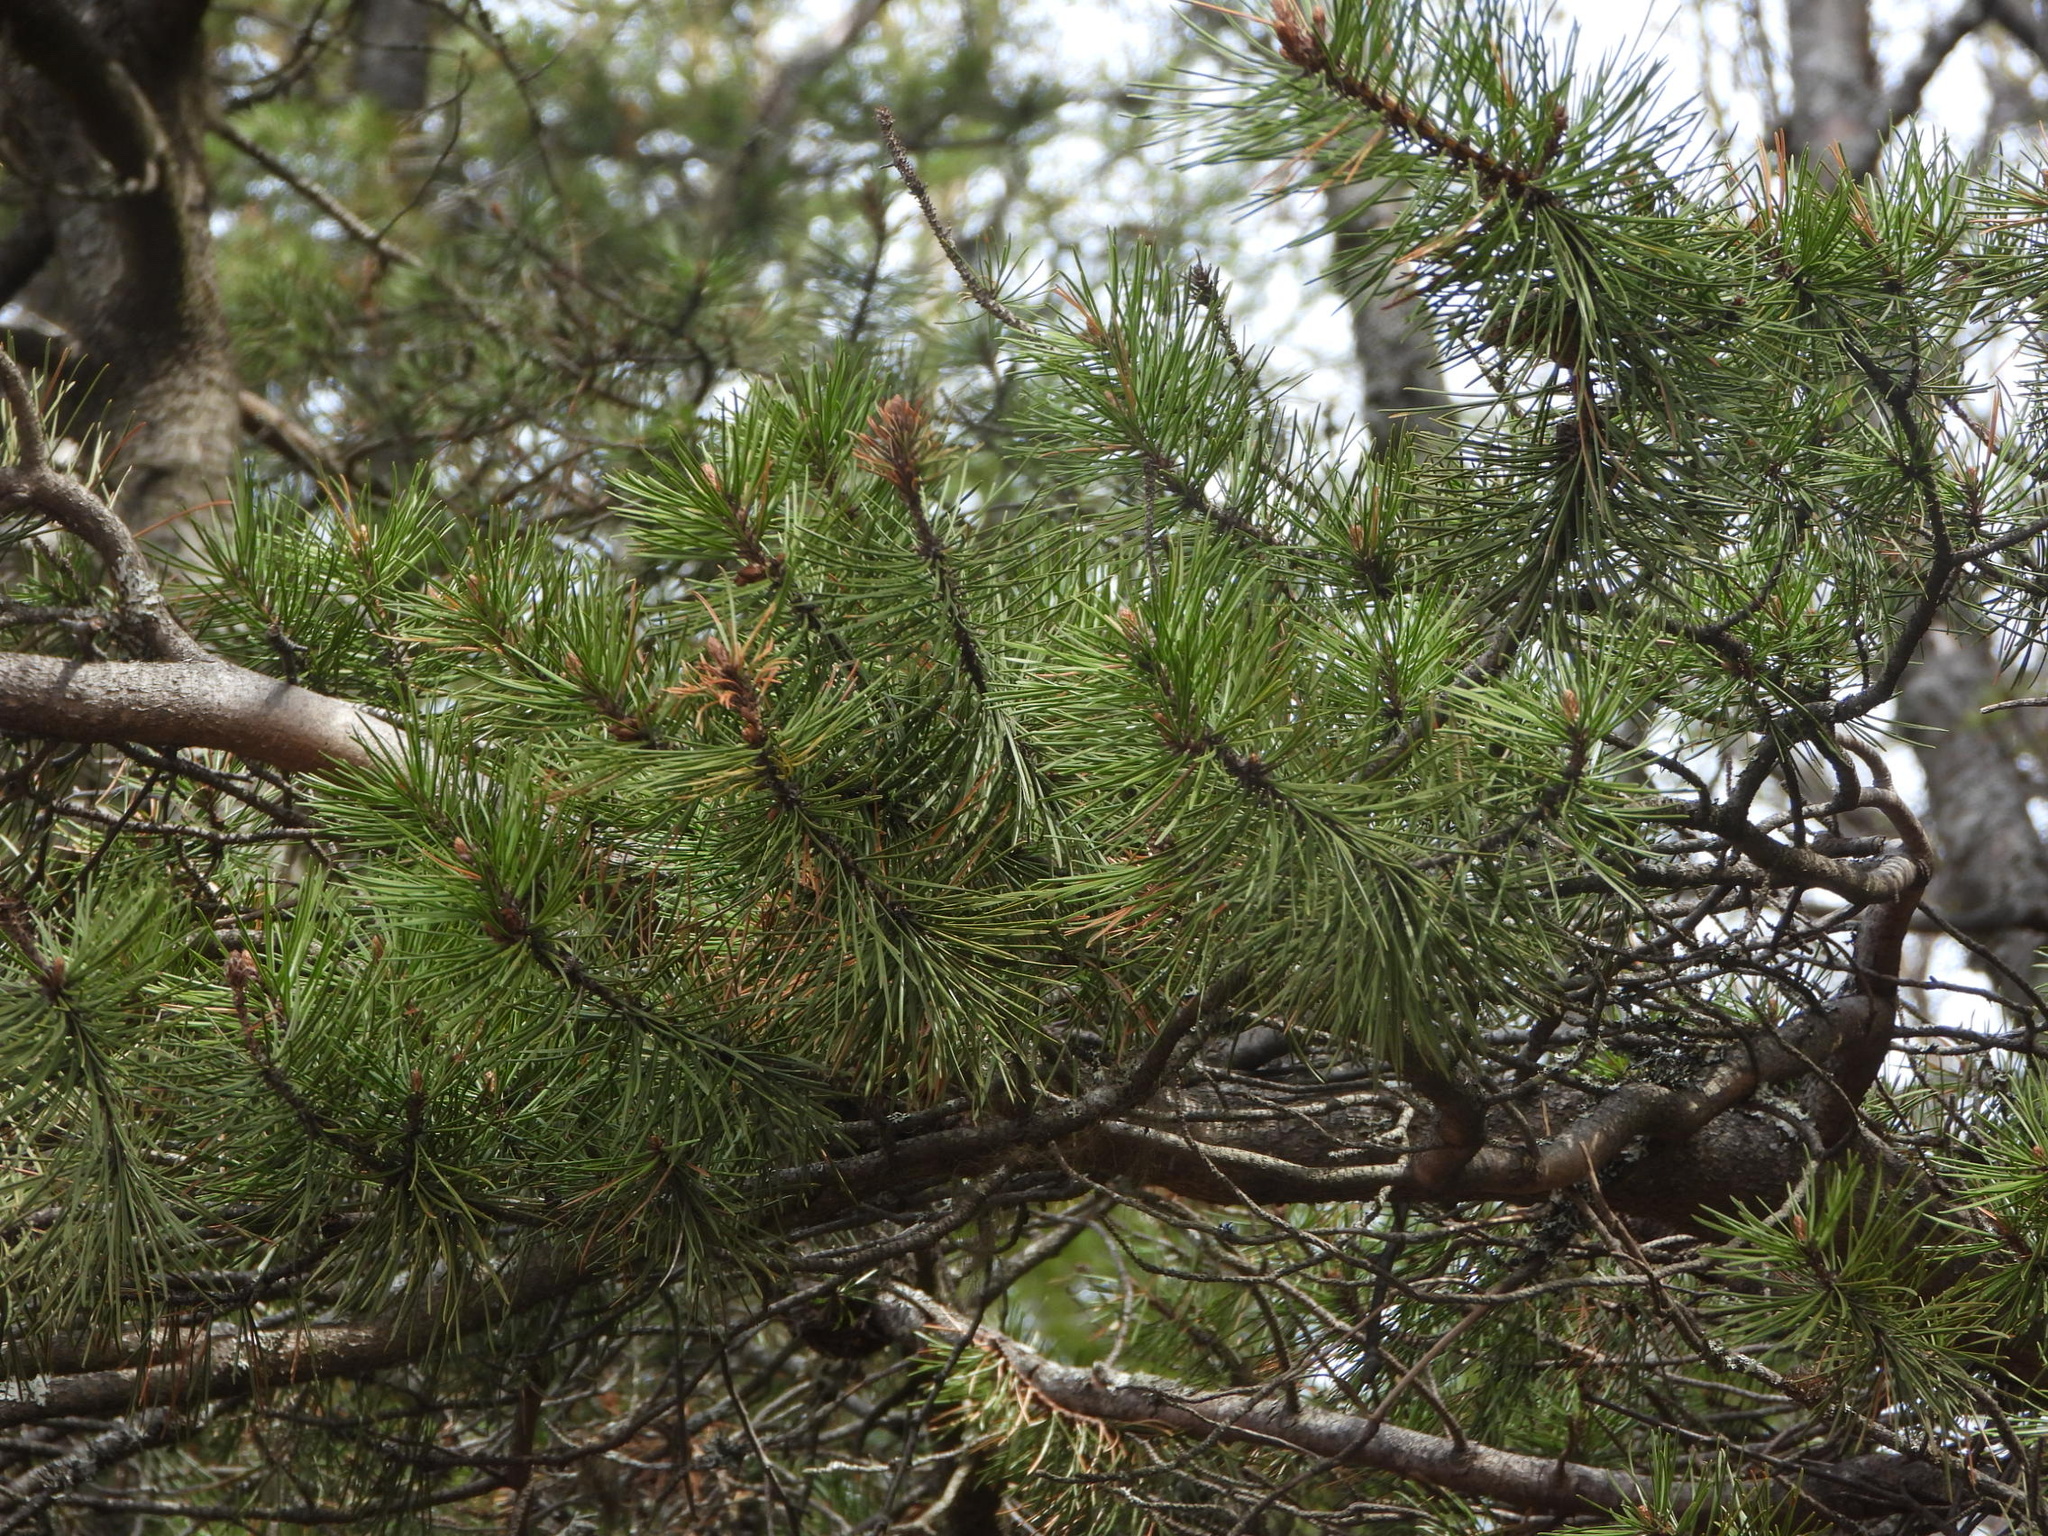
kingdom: Plantae
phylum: Tracheophyta
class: Pinopsida
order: Pinales
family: Pinaceae
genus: Pinus
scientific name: Pinus contorta
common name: Lodgepole pine
